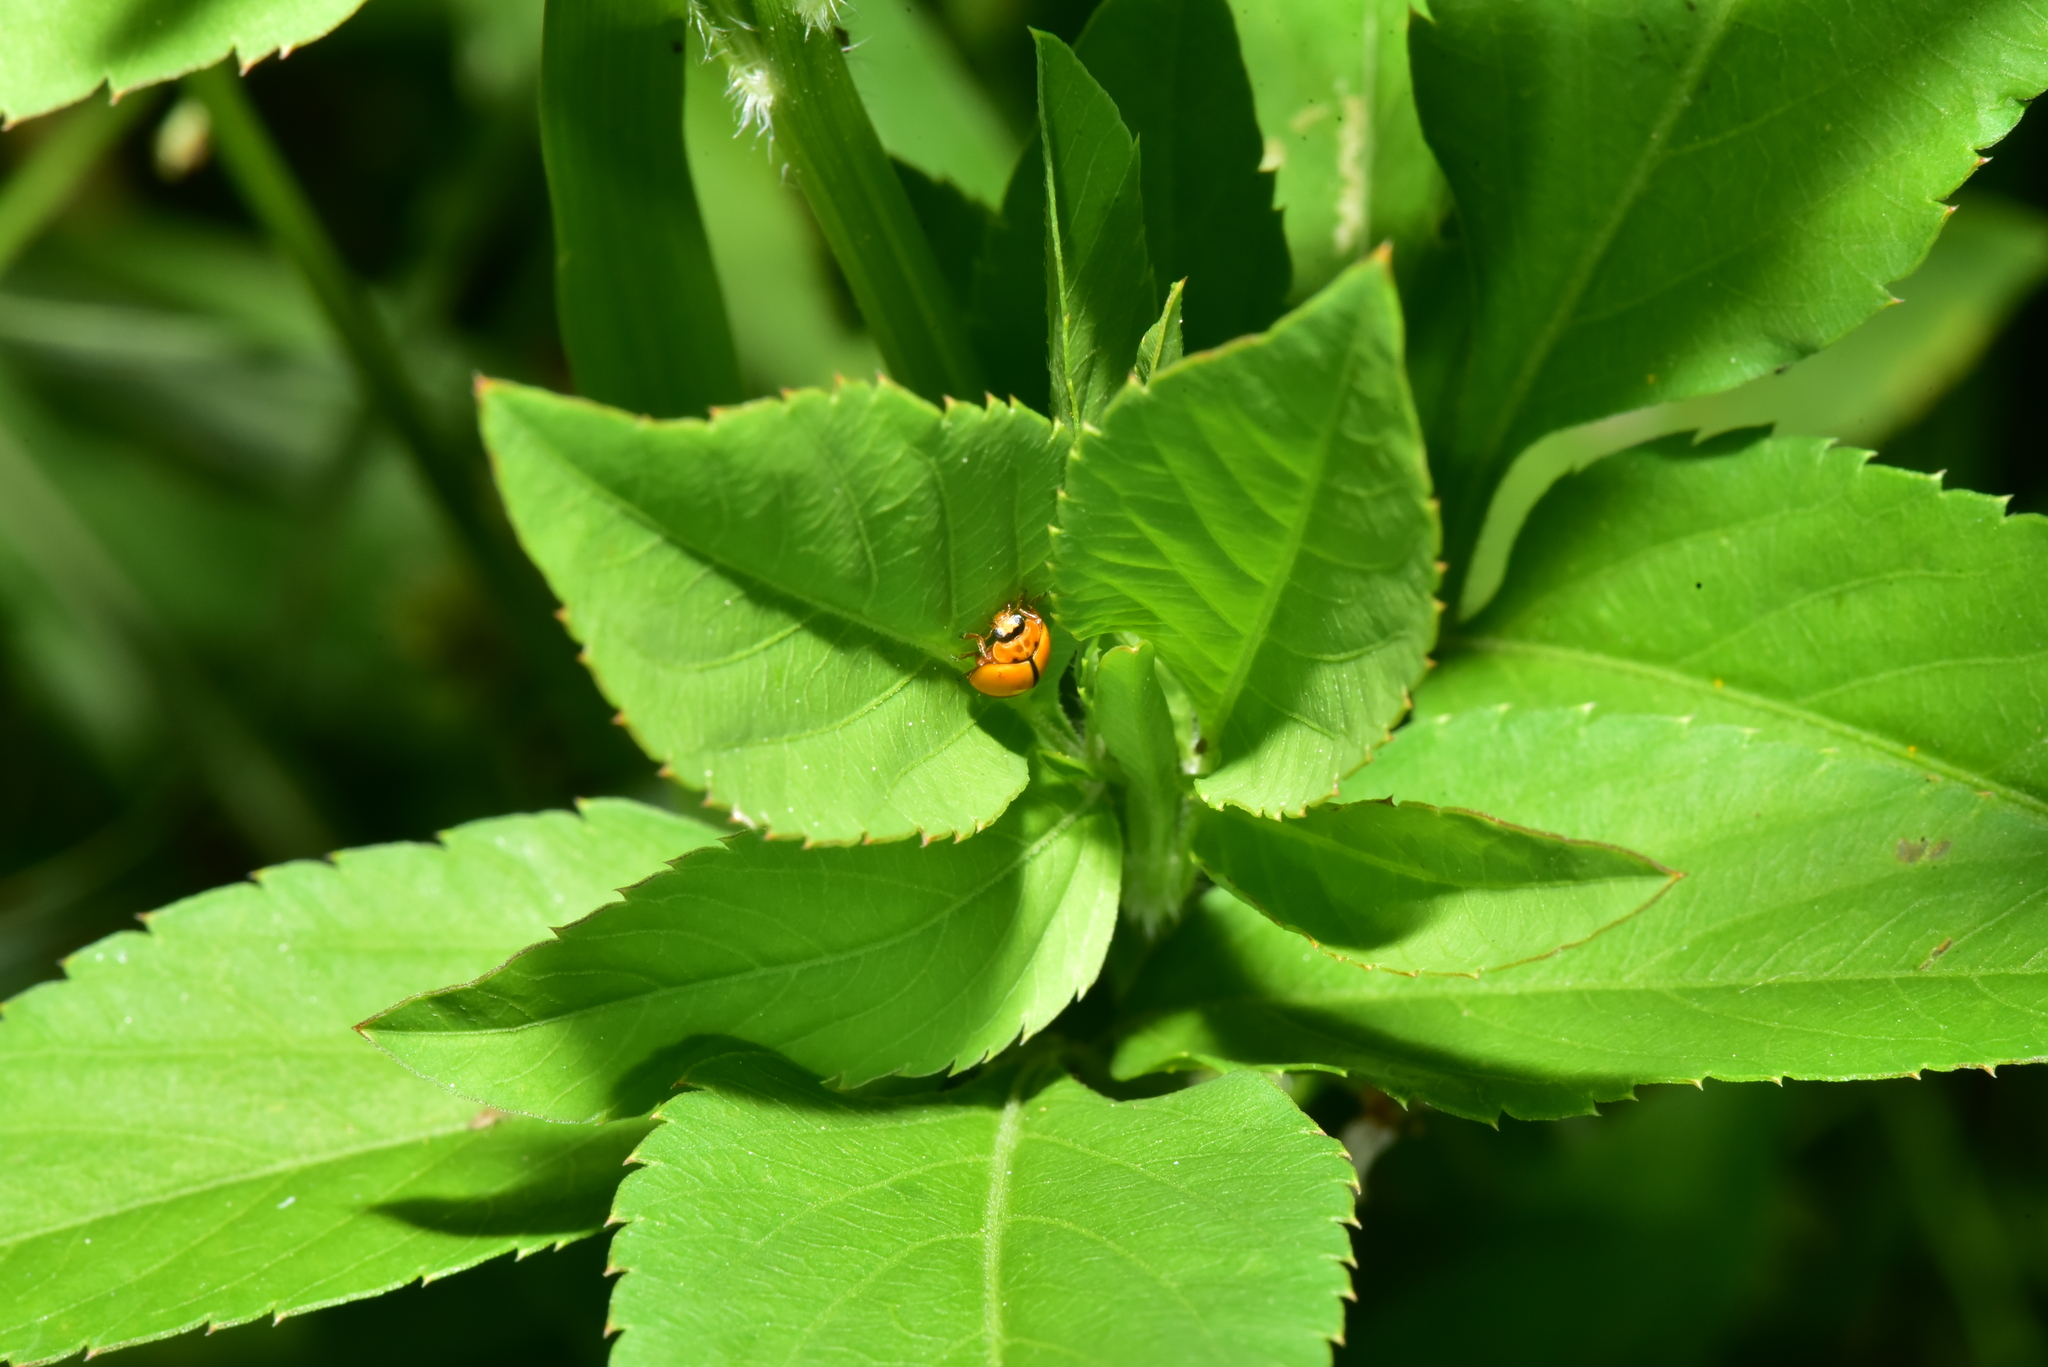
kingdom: Animalia
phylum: Arthropoda
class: Insecta
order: Coleoptera
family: Coccinellidae
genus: Micraspis
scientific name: Micraspis discolor
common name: Lady beetle
